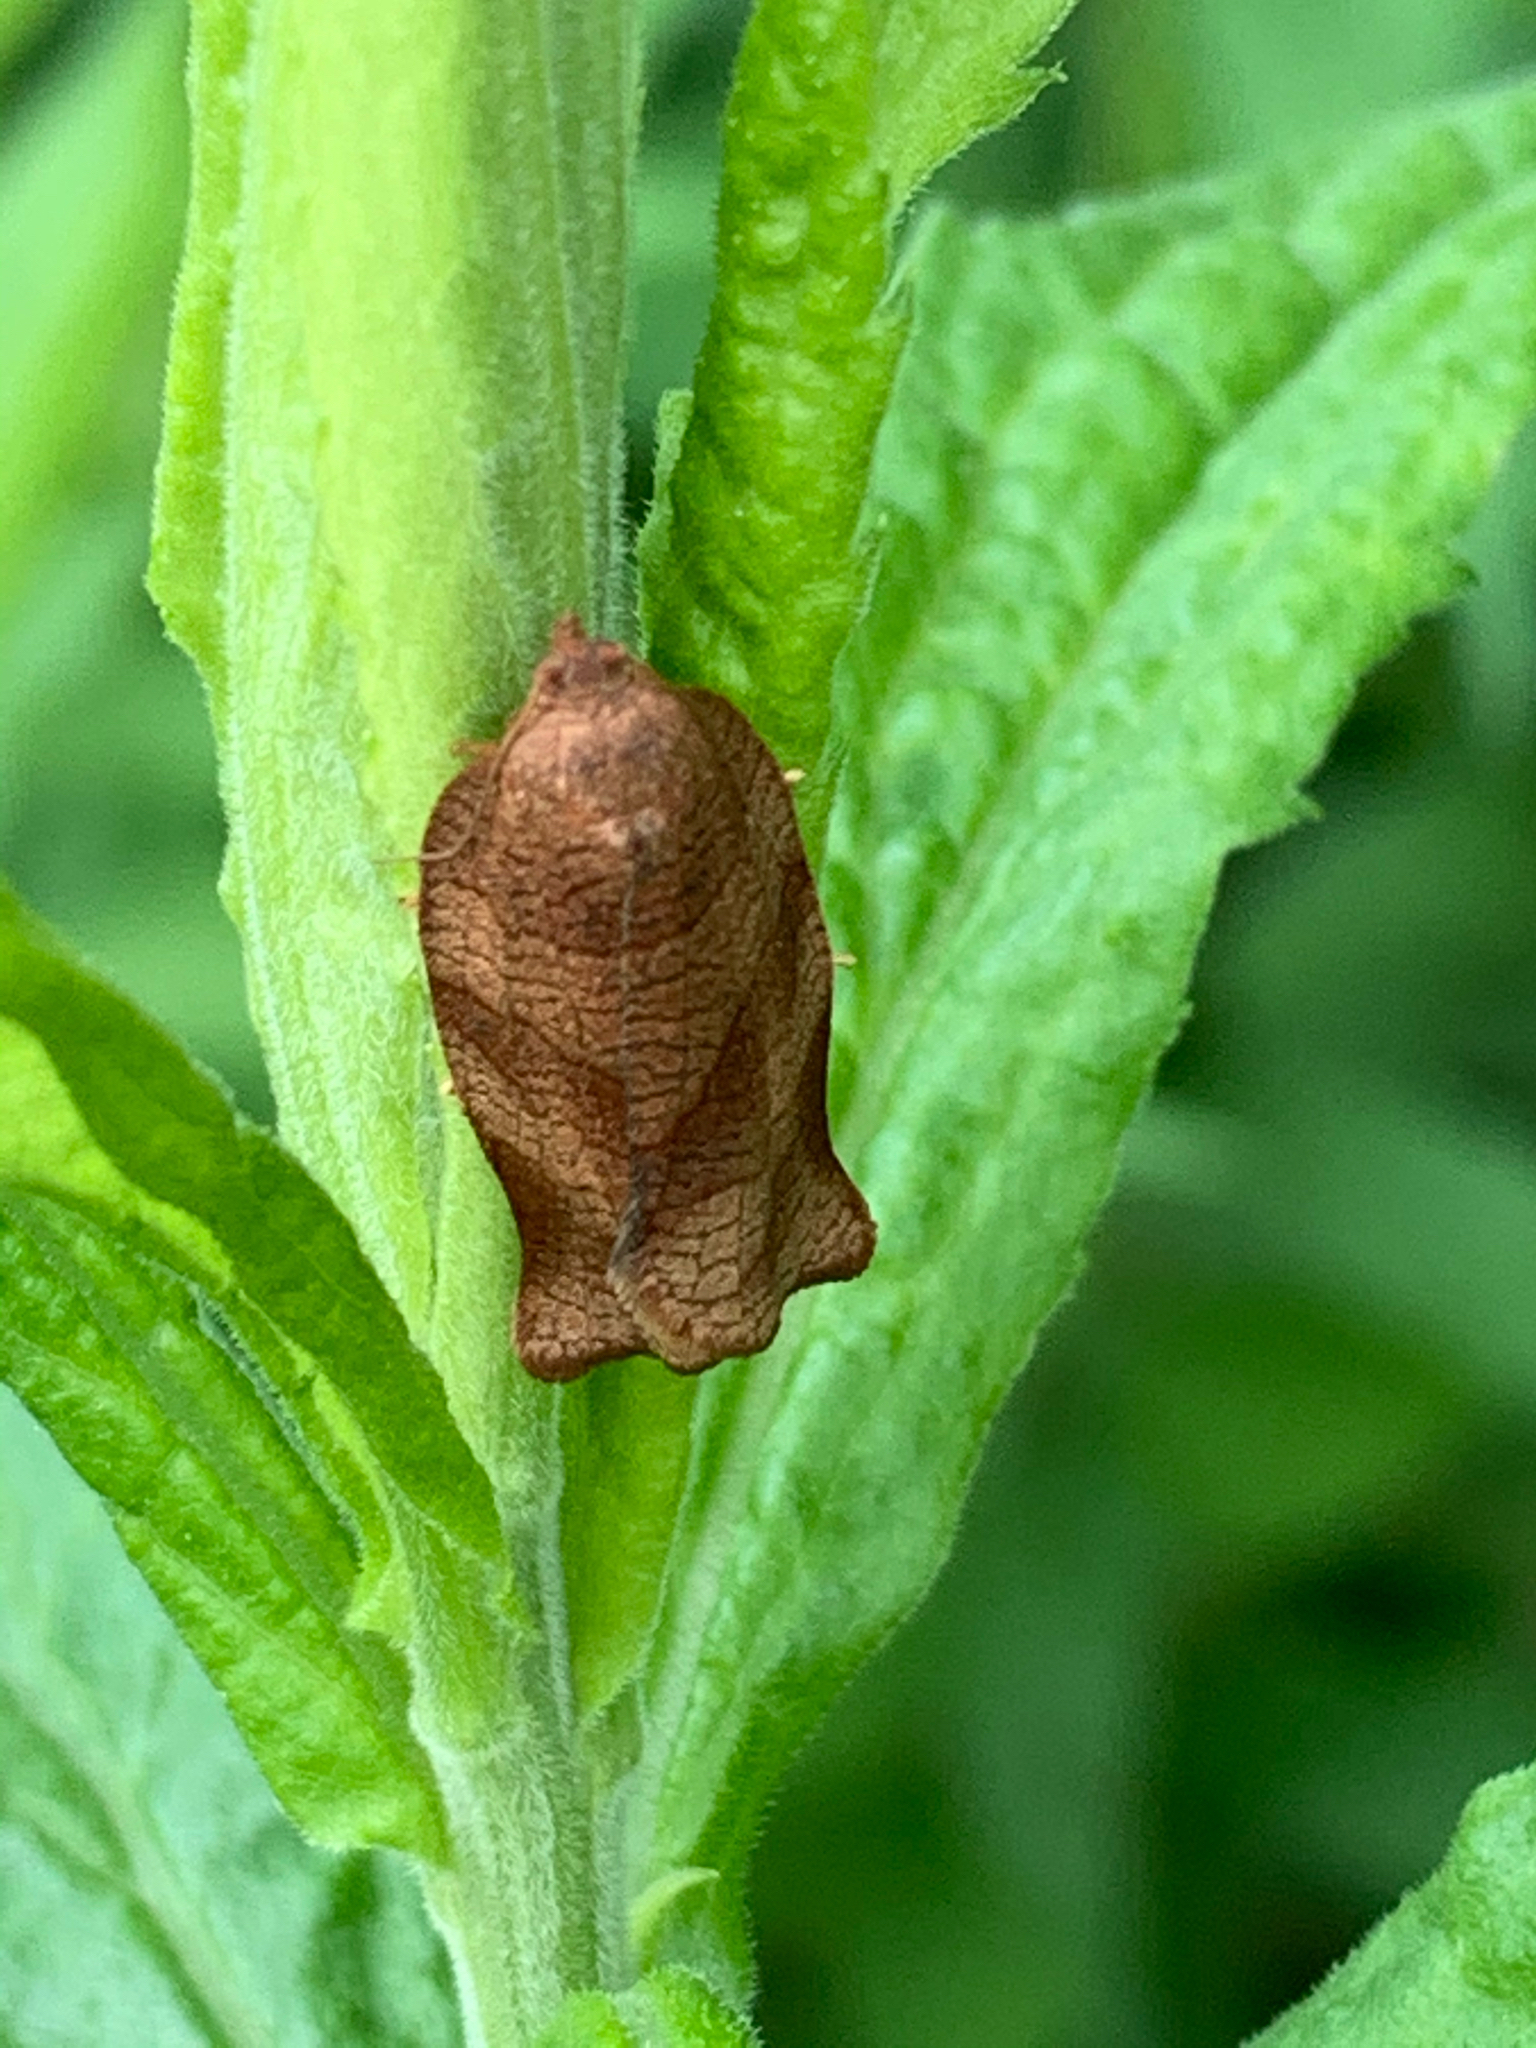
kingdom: Animalia
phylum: Arthropoda
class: Insecta
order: Lepidoptera
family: Tortricidae
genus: Choristoneura
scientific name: Choristoneura rosaceana
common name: Oblique-banded leafroller moth
